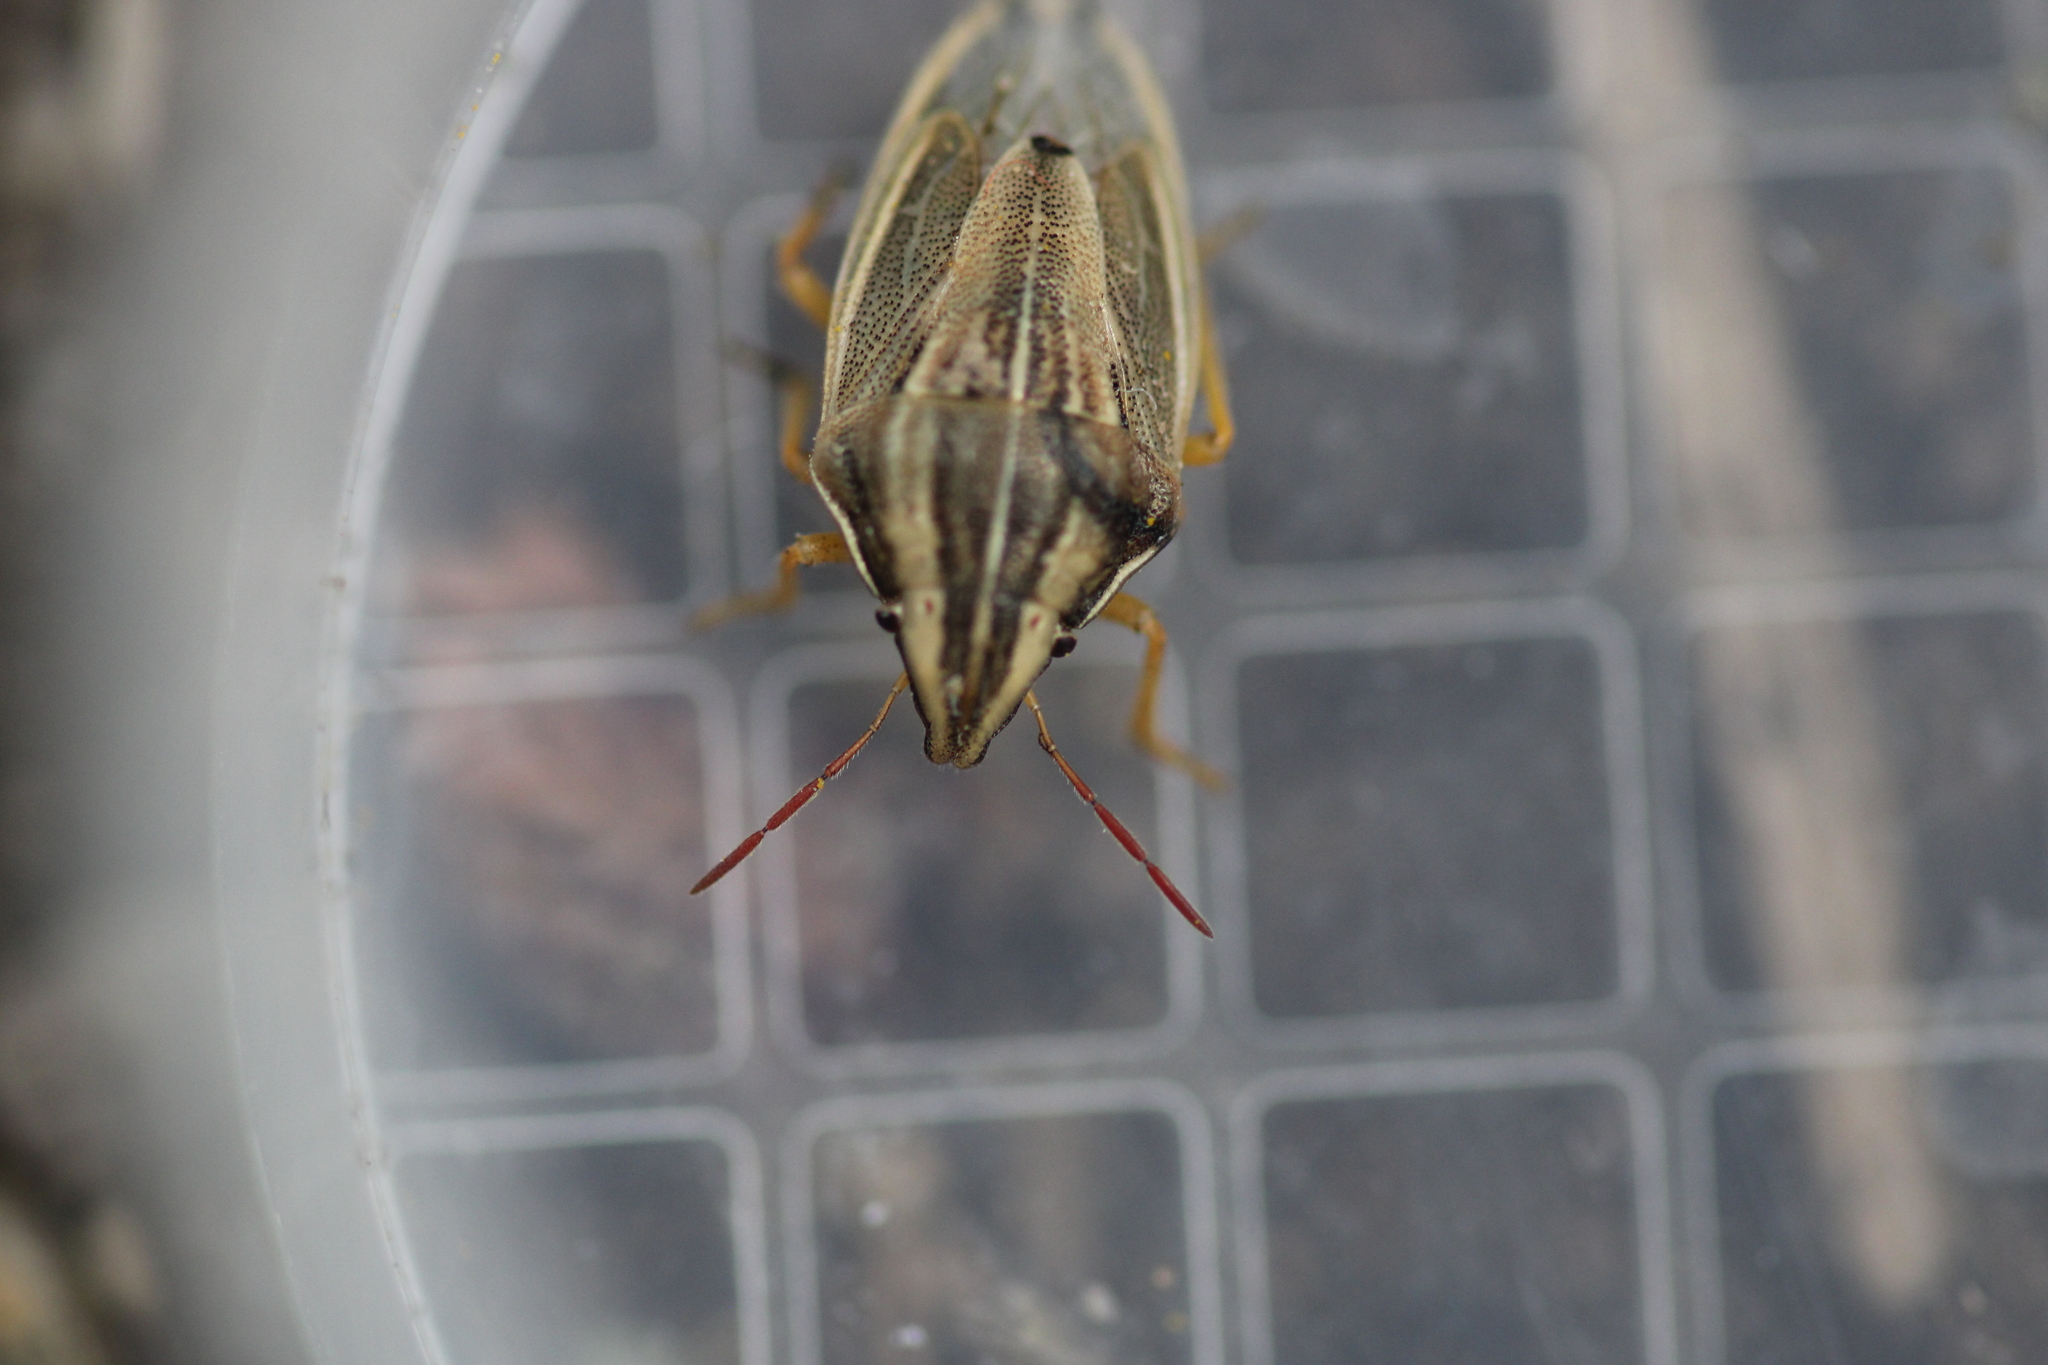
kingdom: Animalia
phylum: Arthropoda
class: Insecta
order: Hemiptera
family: Pentatomidae
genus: Aelia
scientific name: Aelia acuminata
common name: Bishop's mitre
